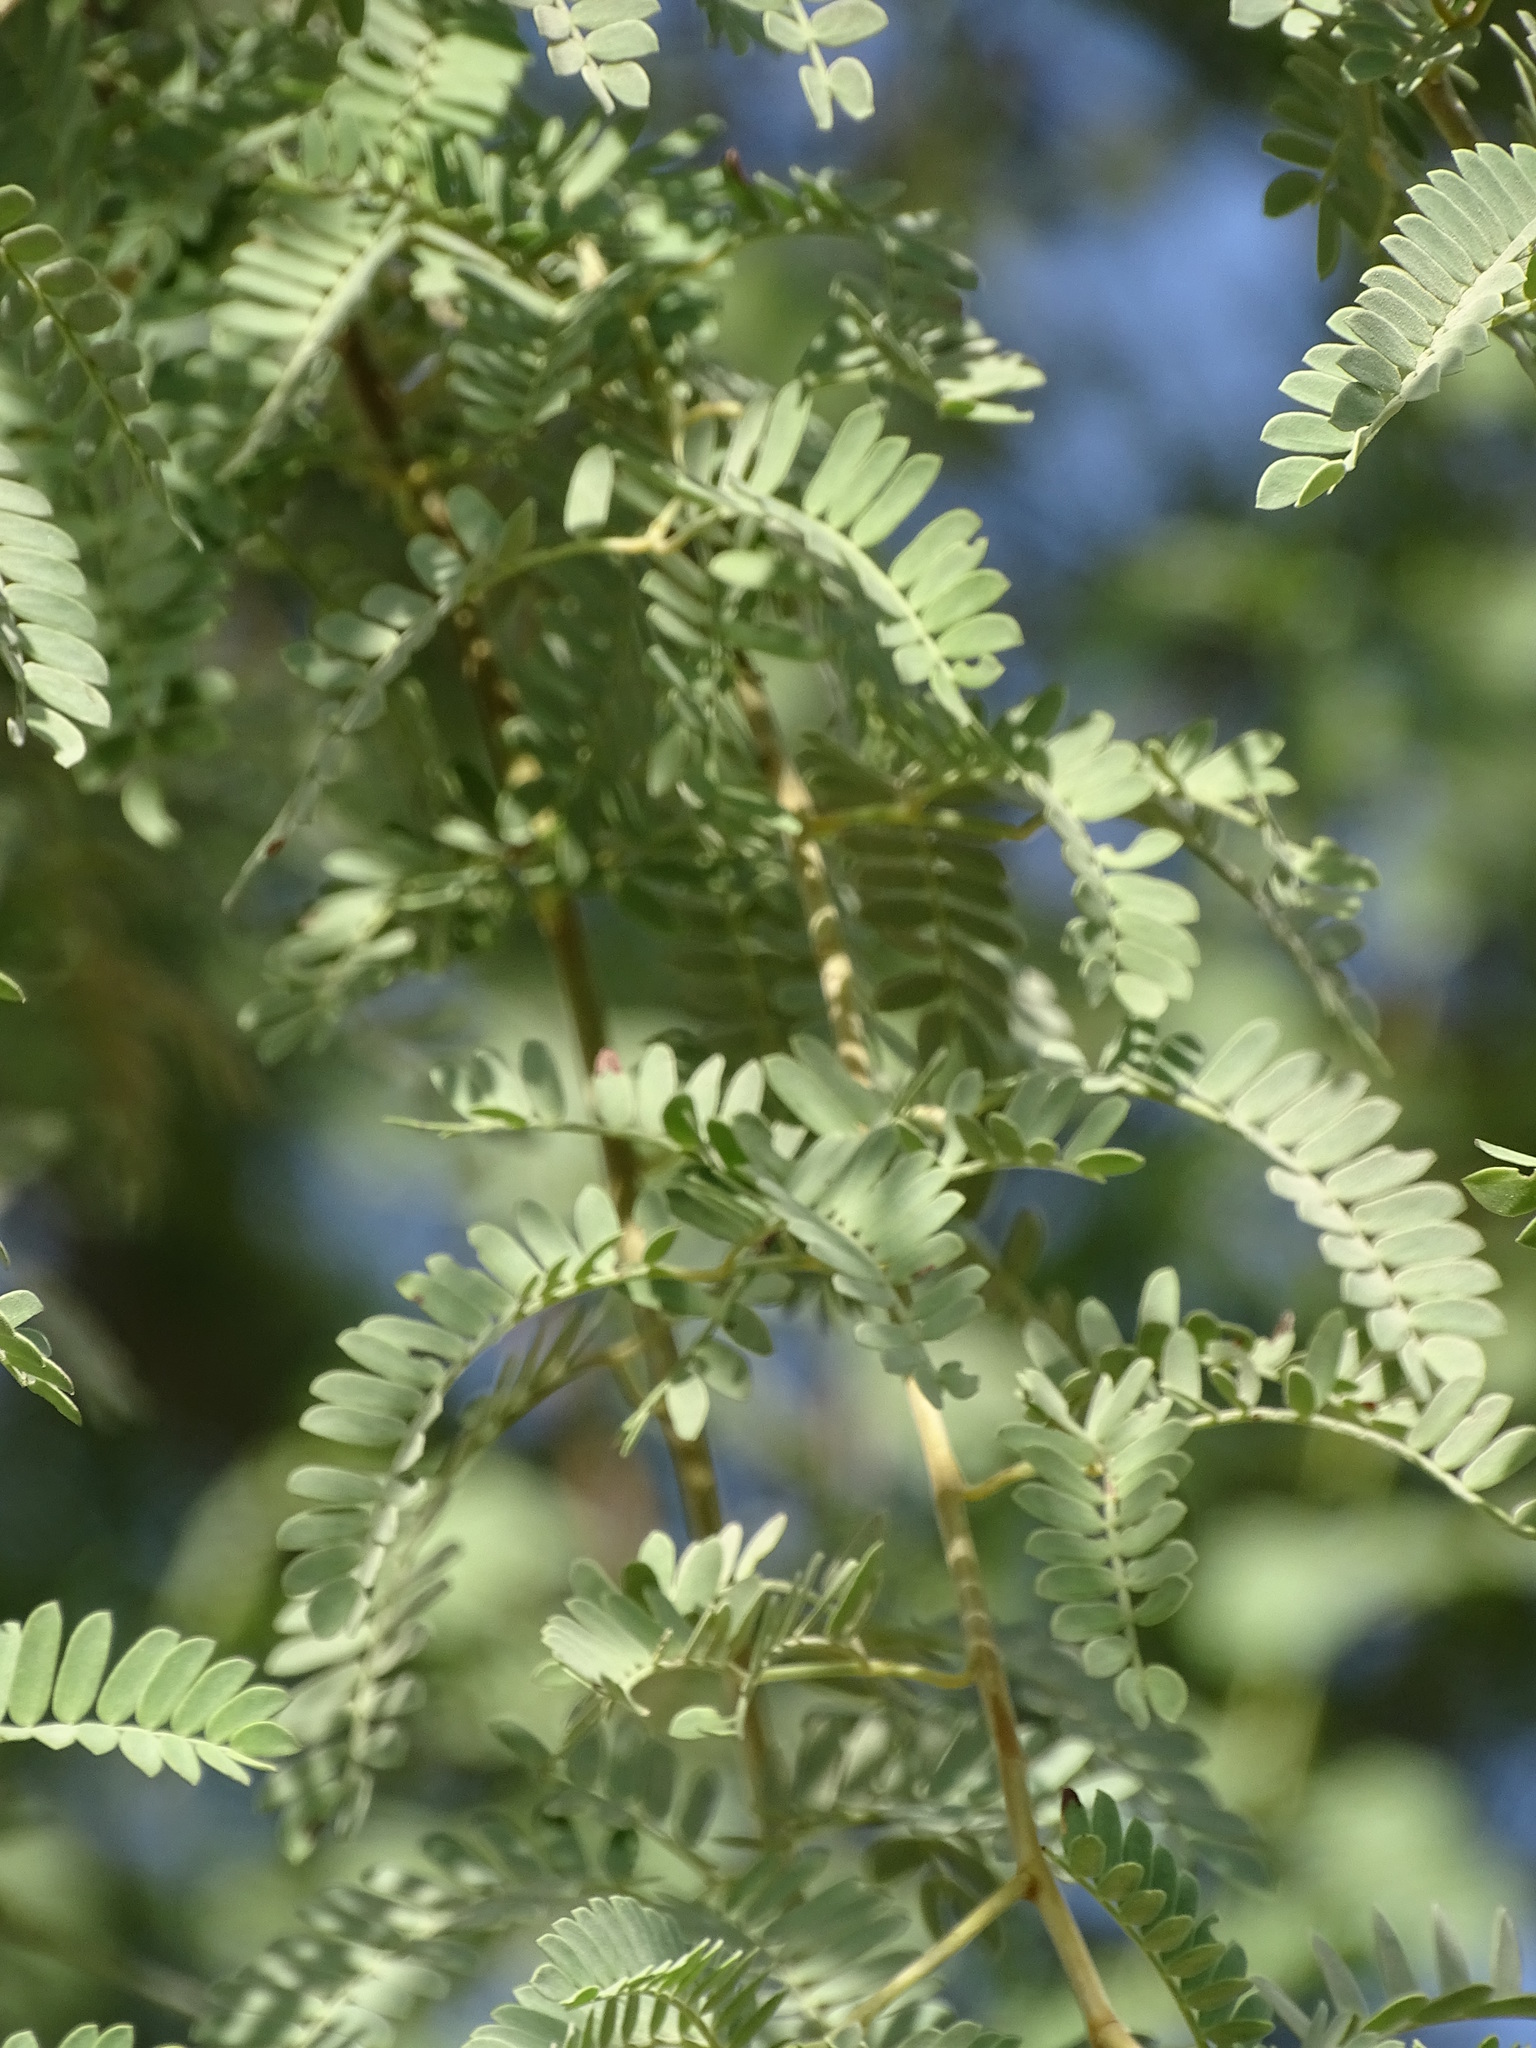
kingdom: Plantae
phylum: Tracheophyta
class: Magnoliopsida
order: Fabales
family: Fabaceae
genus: Prosopis
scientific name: Prosopis cineraria
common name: Jandi
